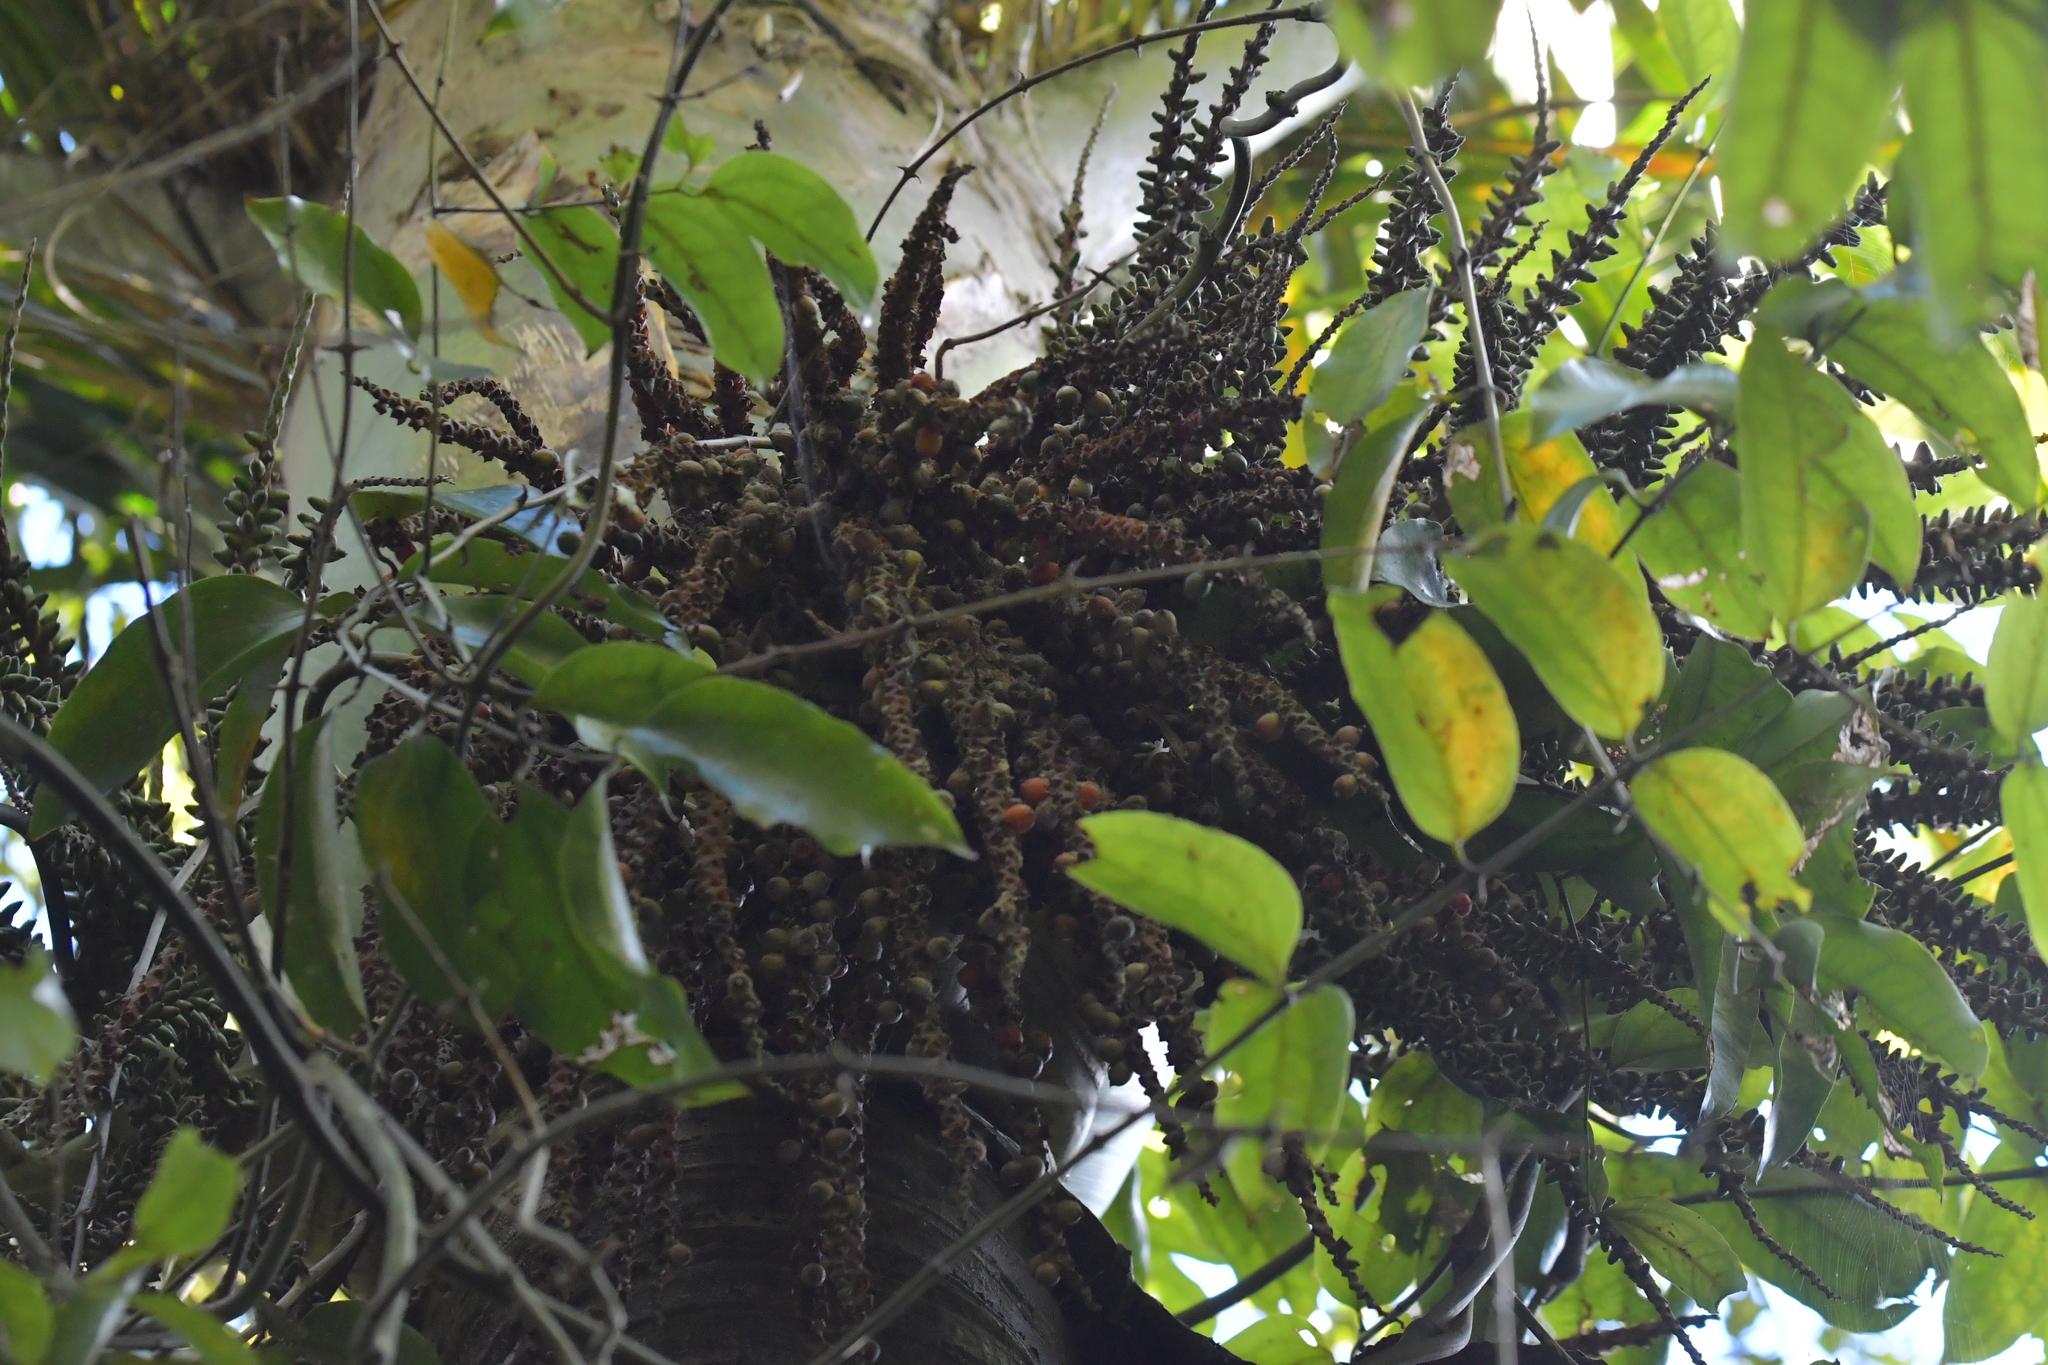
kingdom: Plantae
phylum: Tracheophyta
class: Liliopsida
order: Arecales
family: Arecaceae
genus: Rhopalostylis
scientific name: Rhopalostylis sapida
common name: Feather-duster palm
